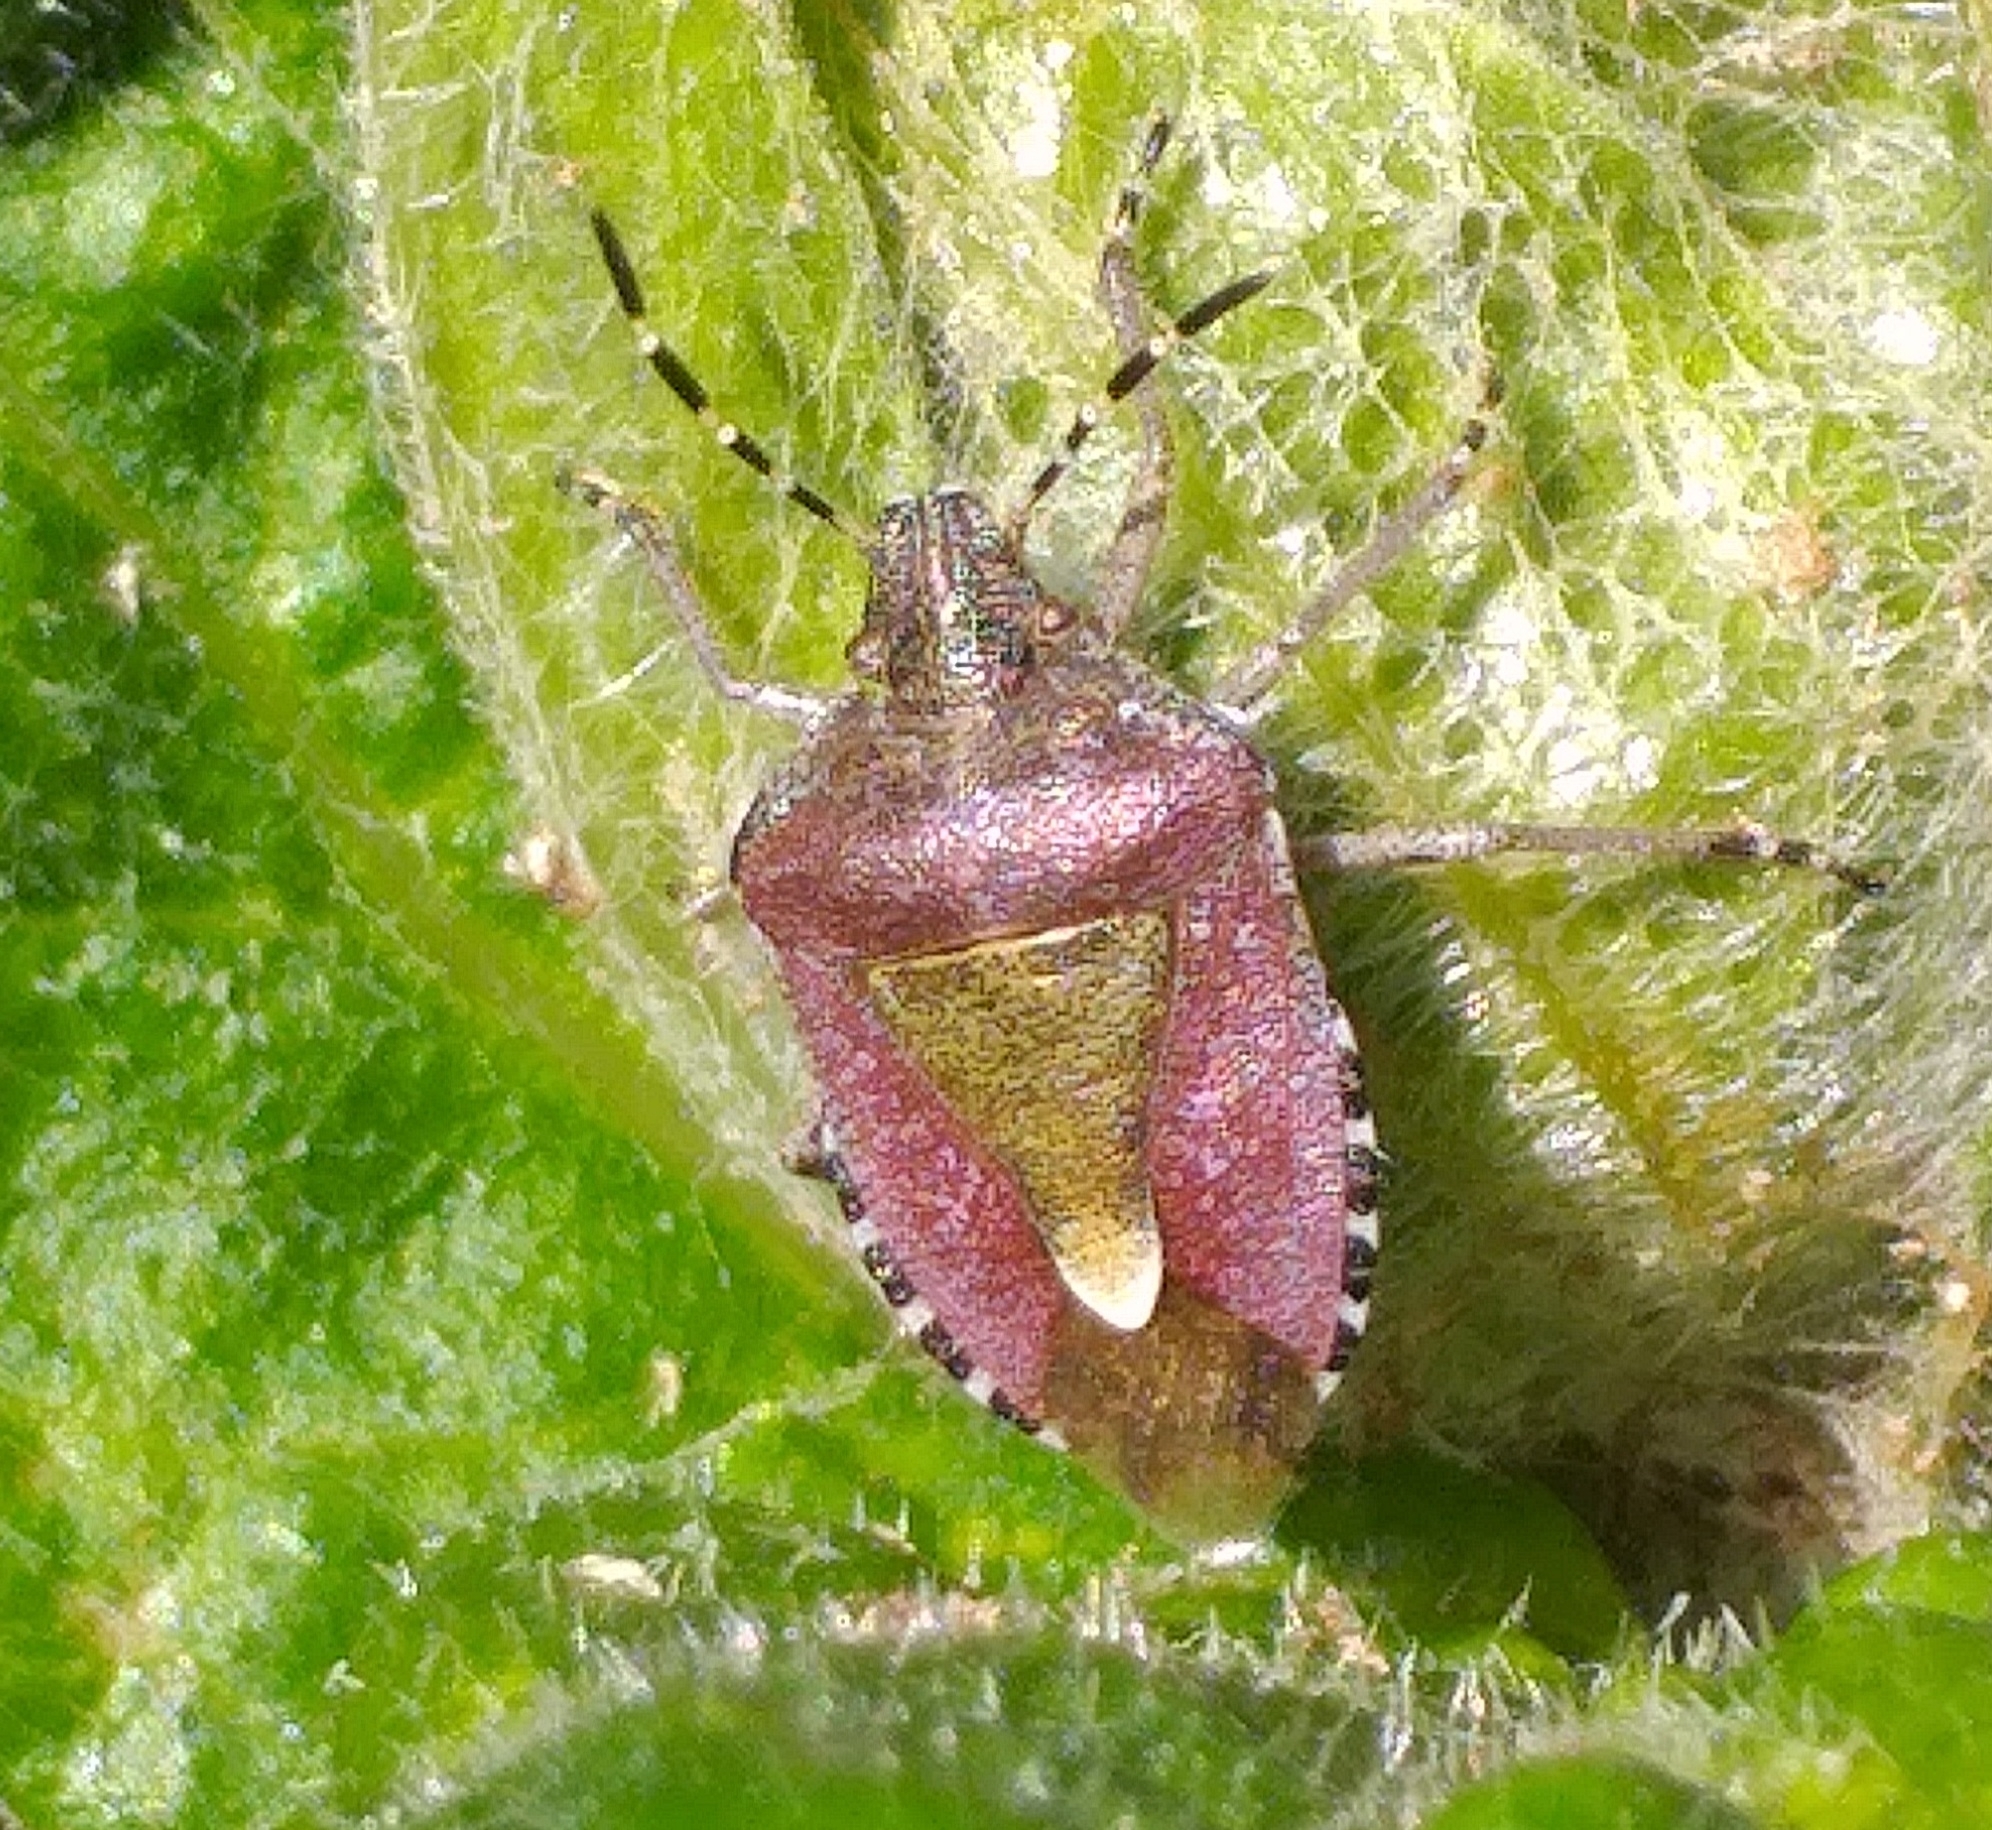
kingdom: Animalia
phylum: Arthropoda
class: Insecta
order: Hemiptera
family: Pentatomidae
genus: Dolycoris
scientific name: Dolycoris baccarum
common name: Sloe bug
